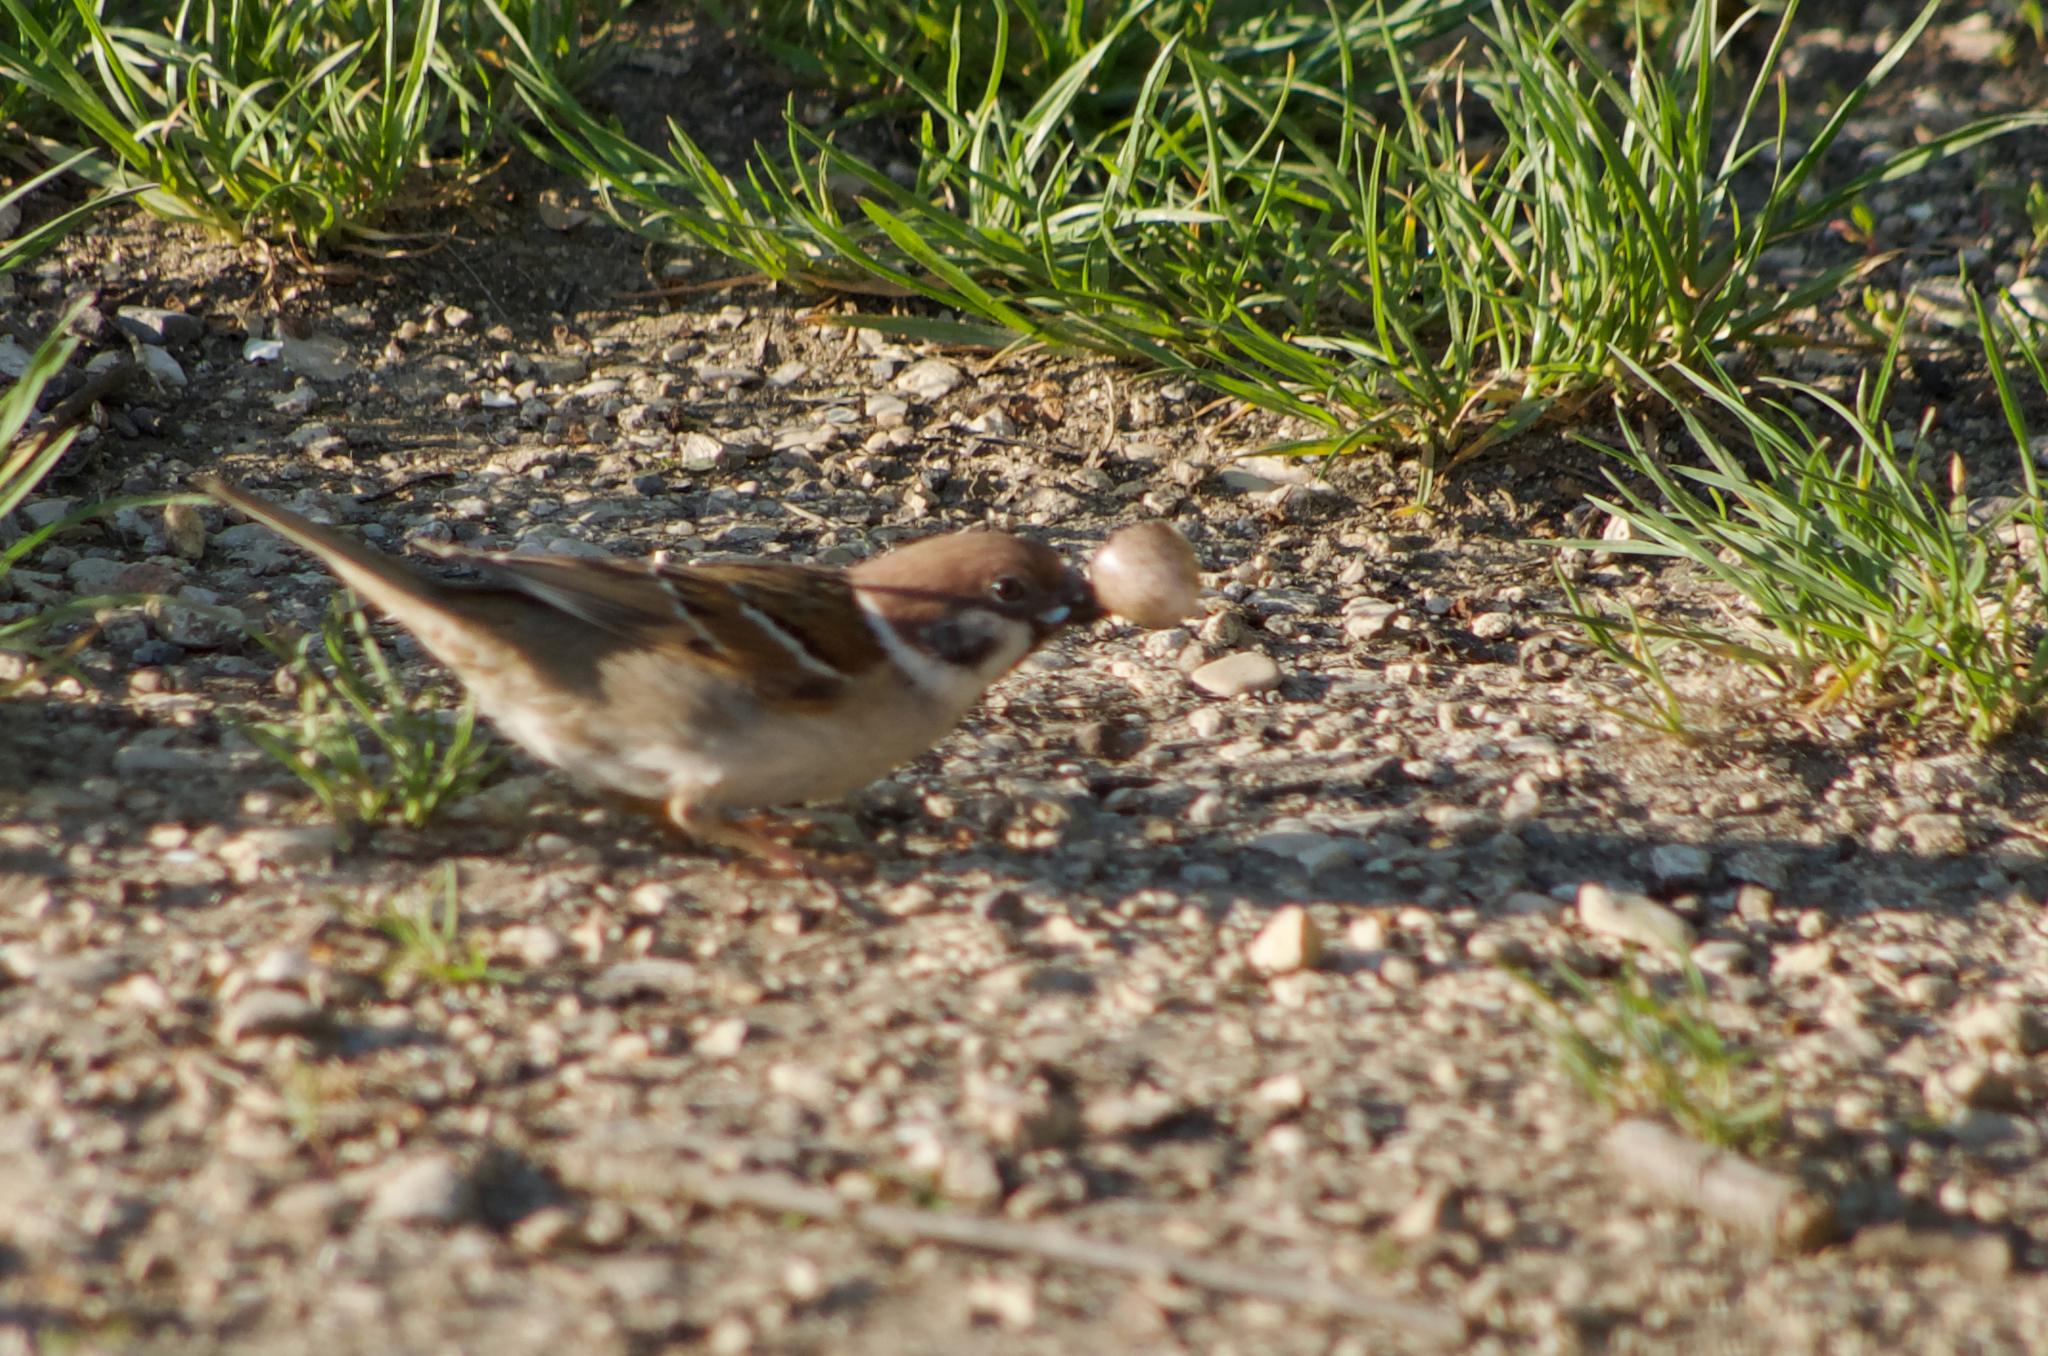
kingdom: Animalia
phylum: Chordata
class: Aves
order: Passeriformes
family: Passeridae
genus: Passer
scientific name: Passer montanus
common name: Eurasian tree sparrow
